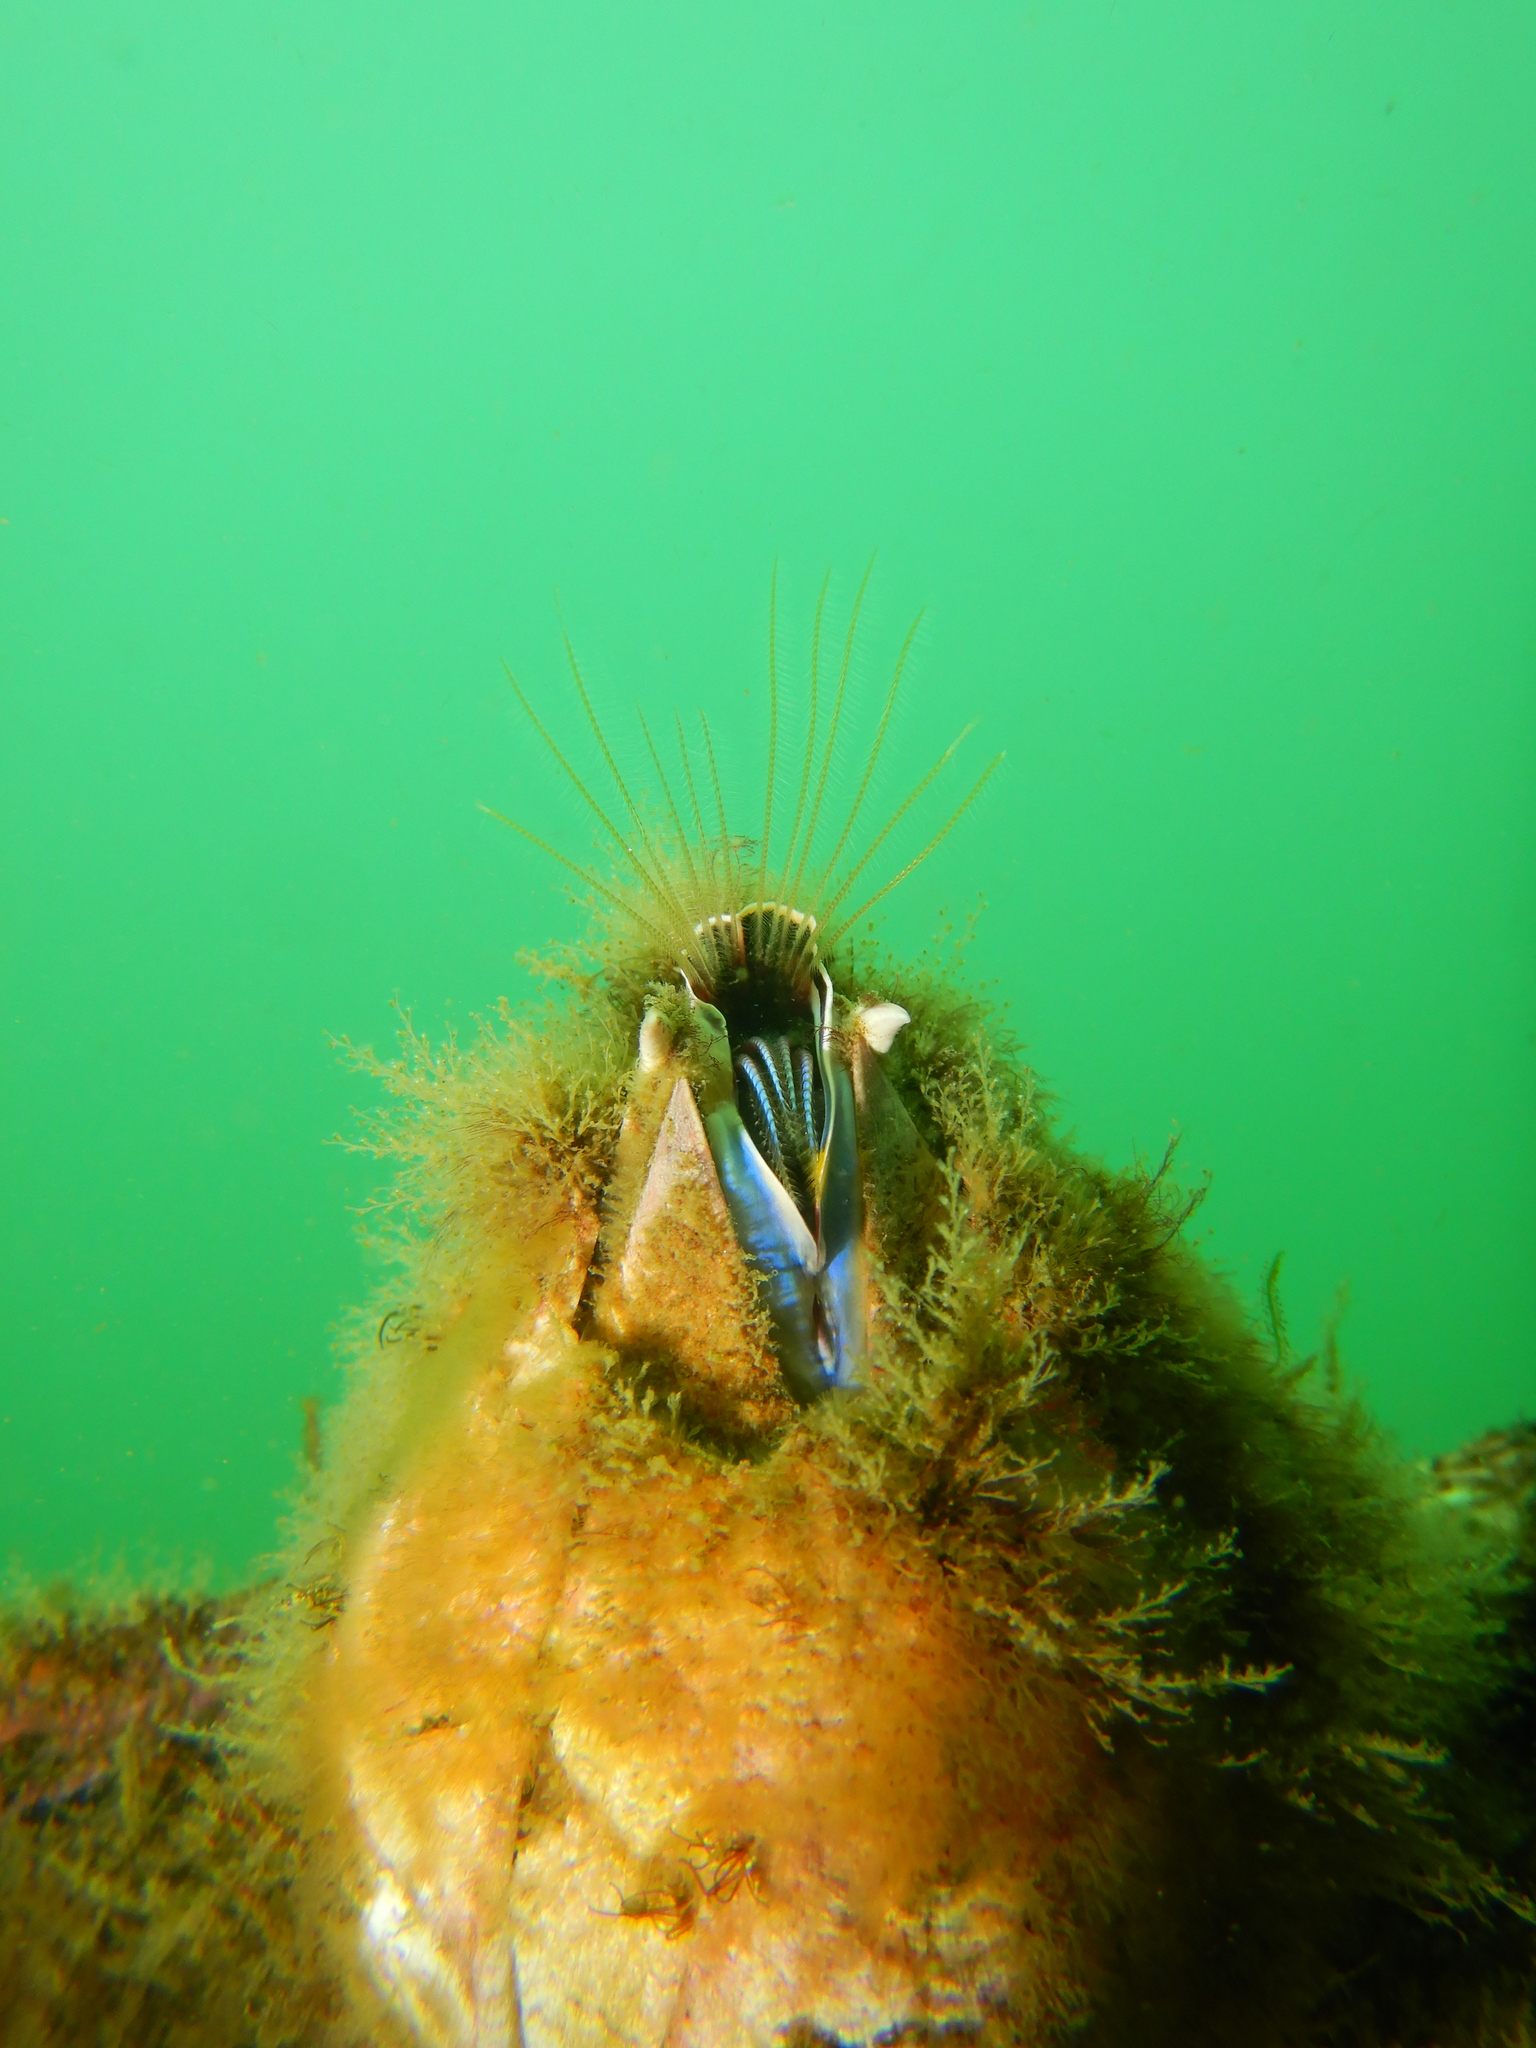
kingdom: Animalia
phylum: Arthropoda
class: Maxillopoda
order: Sessilia
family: Balanidae
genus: Austromegabalanus
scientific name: Austromegabalanus psittacus
